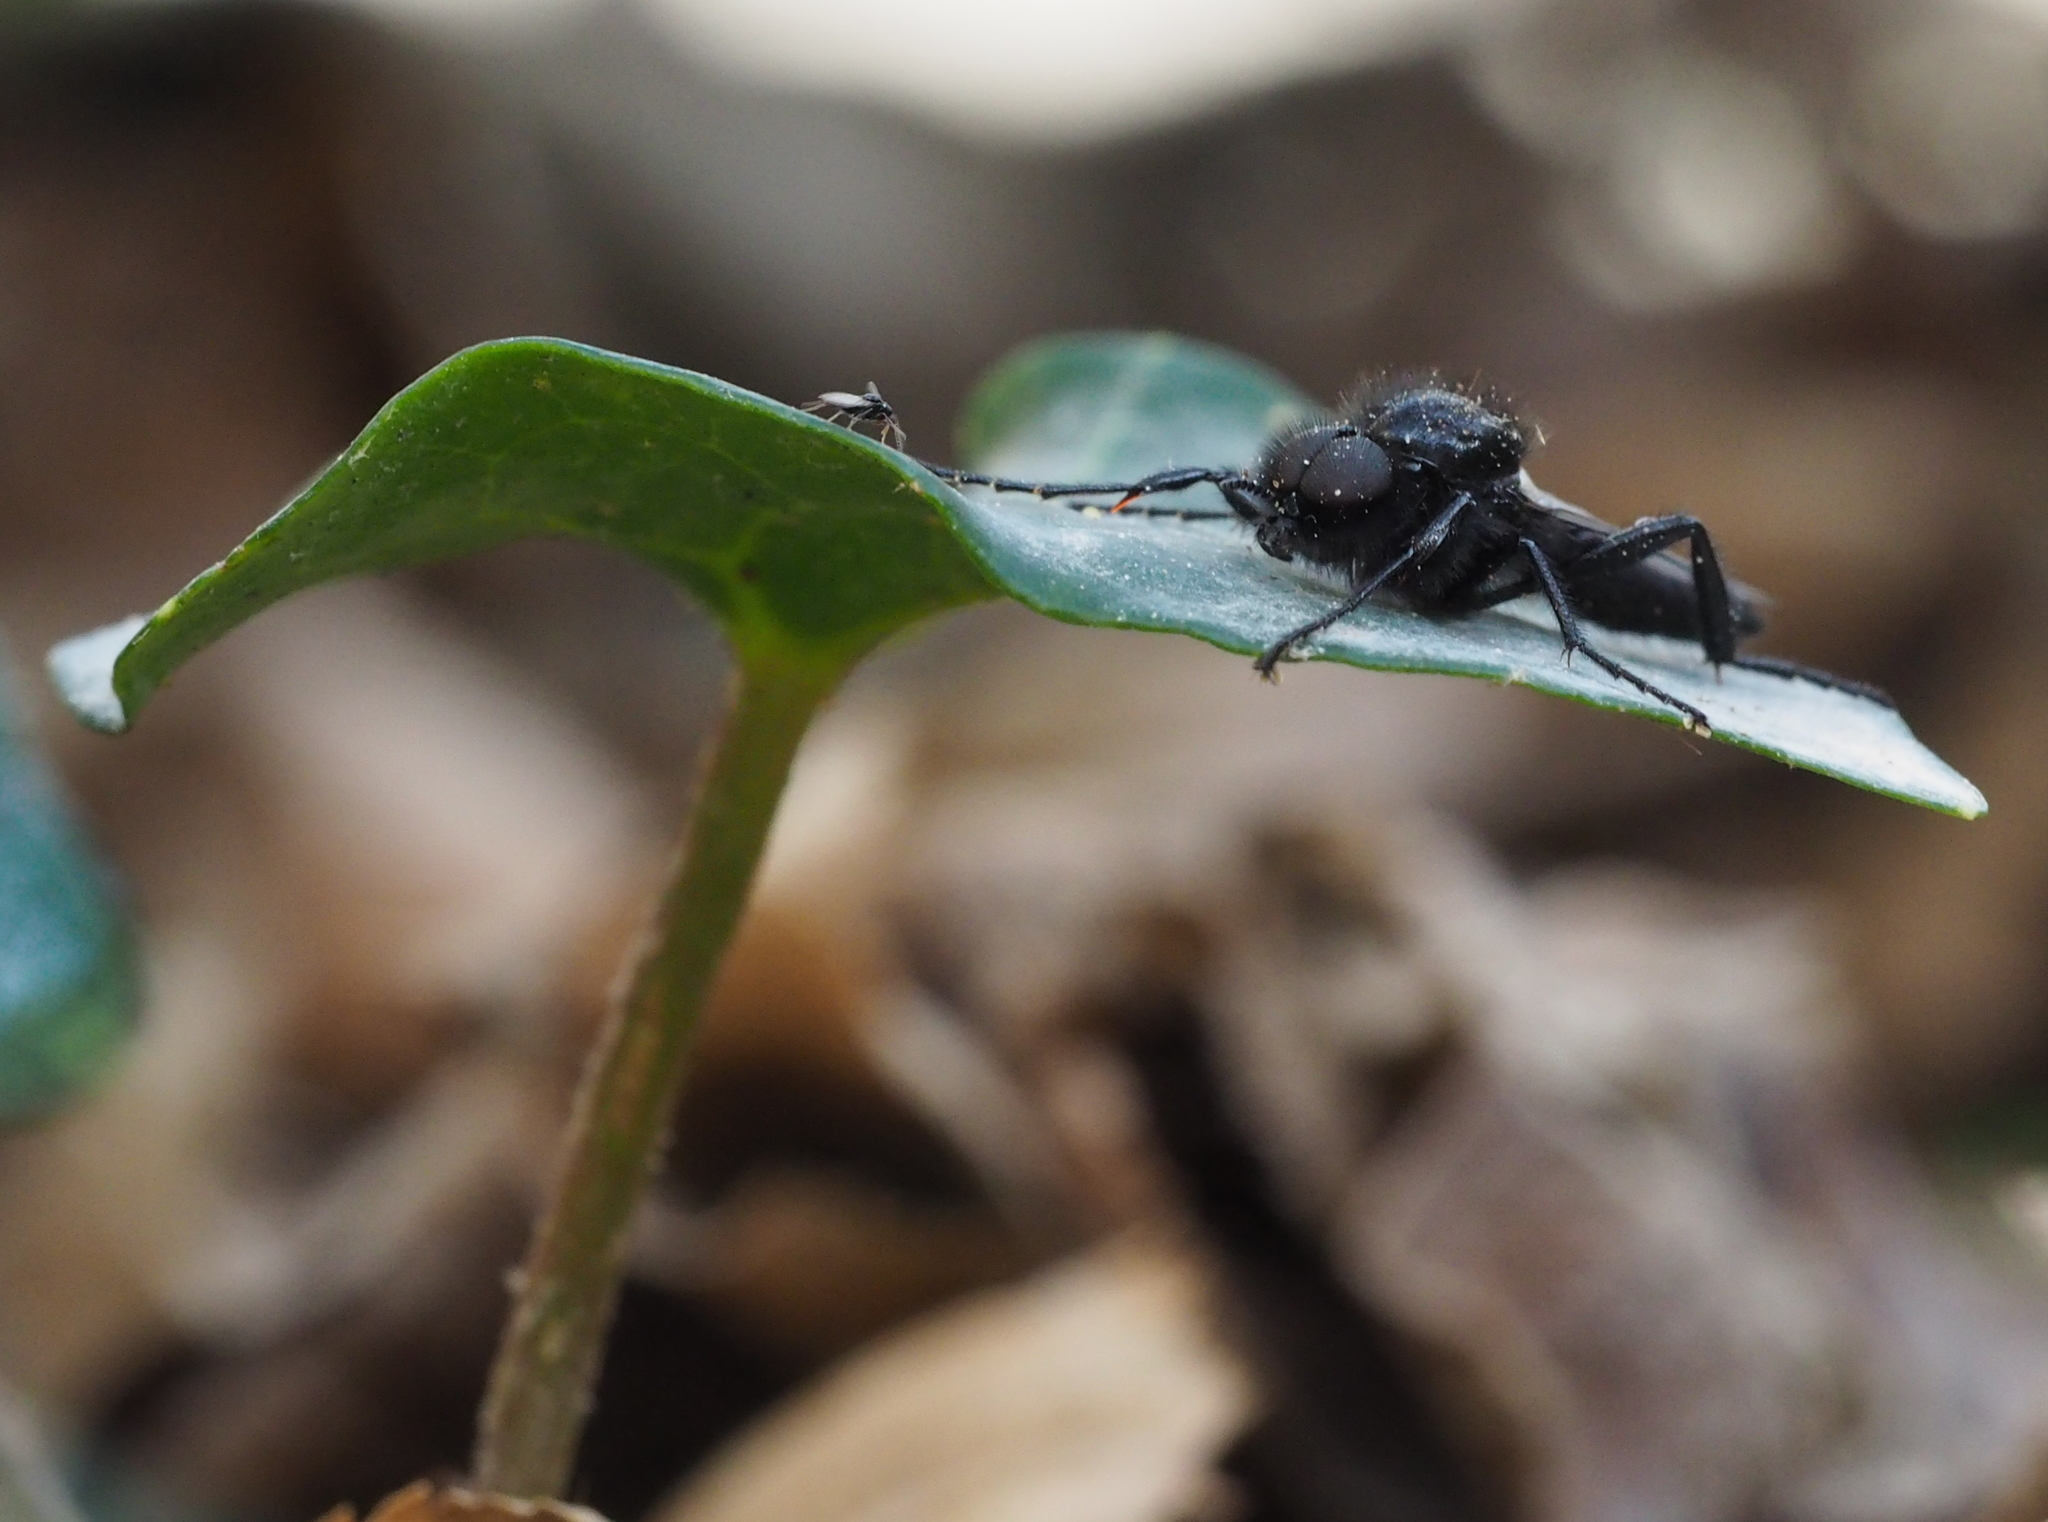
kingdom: Animalia
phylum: Arthropoda
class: Insecta
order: Diptera
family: Bibionidae
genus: Bibio
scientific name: Bibio marci
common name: St marks fly
